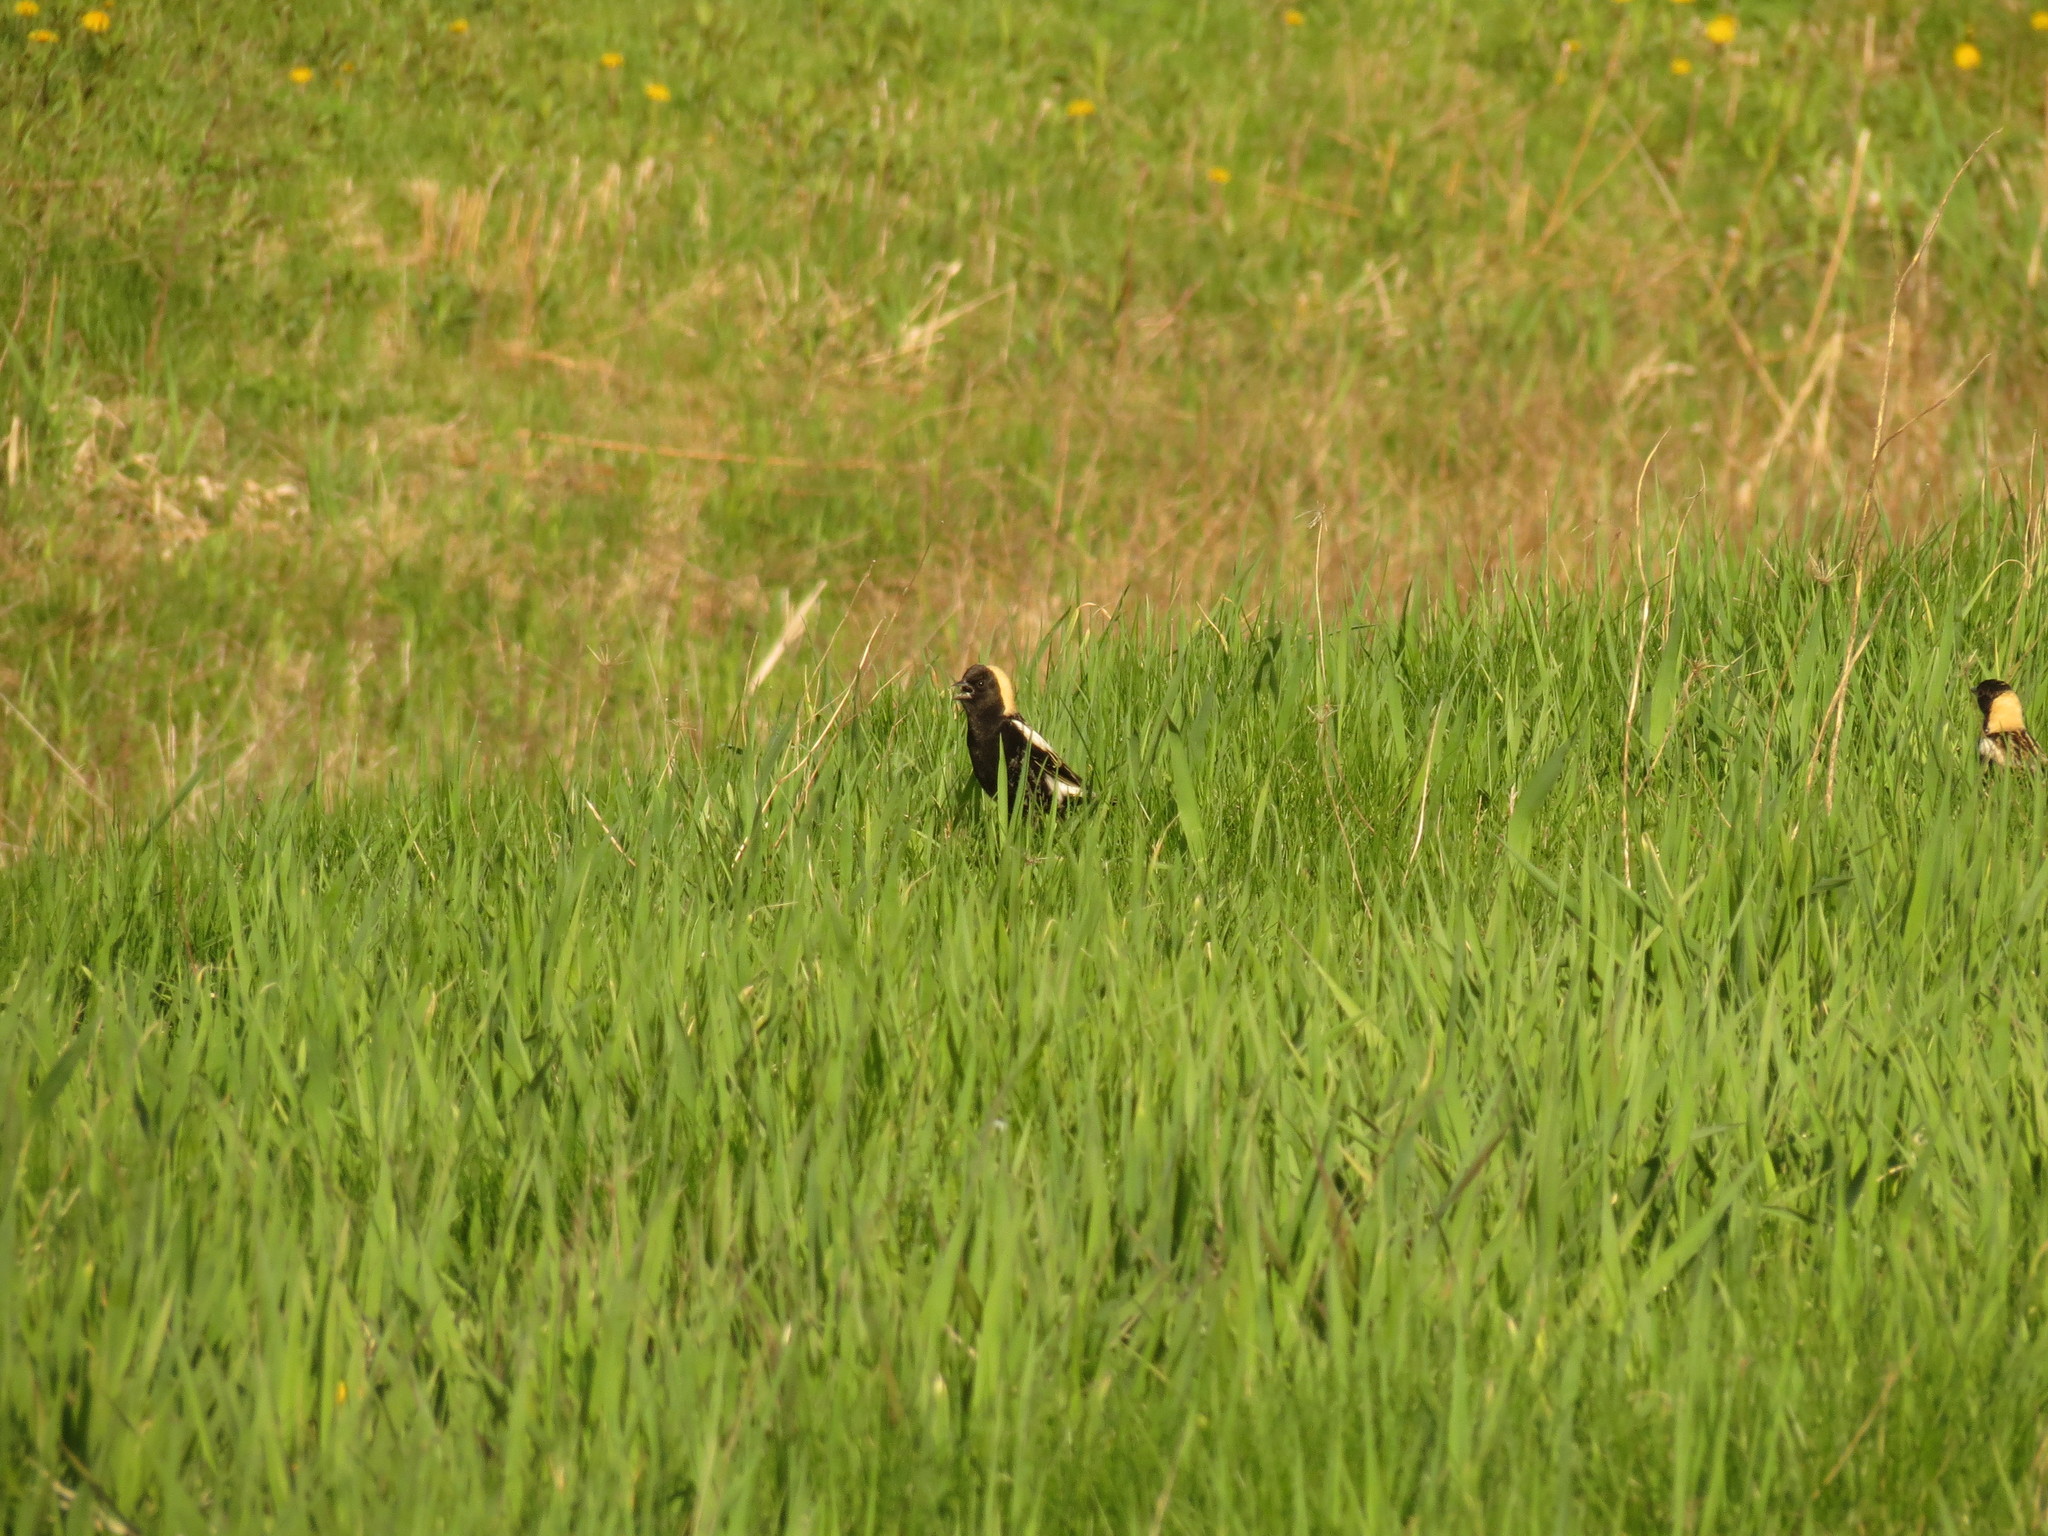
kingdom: Animalia
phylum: Chordata
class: Aves
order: Passeriformes
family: Icteridae
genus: Dolichonyx
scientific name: Dolichonyx oryzivorus
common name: Bobolink
